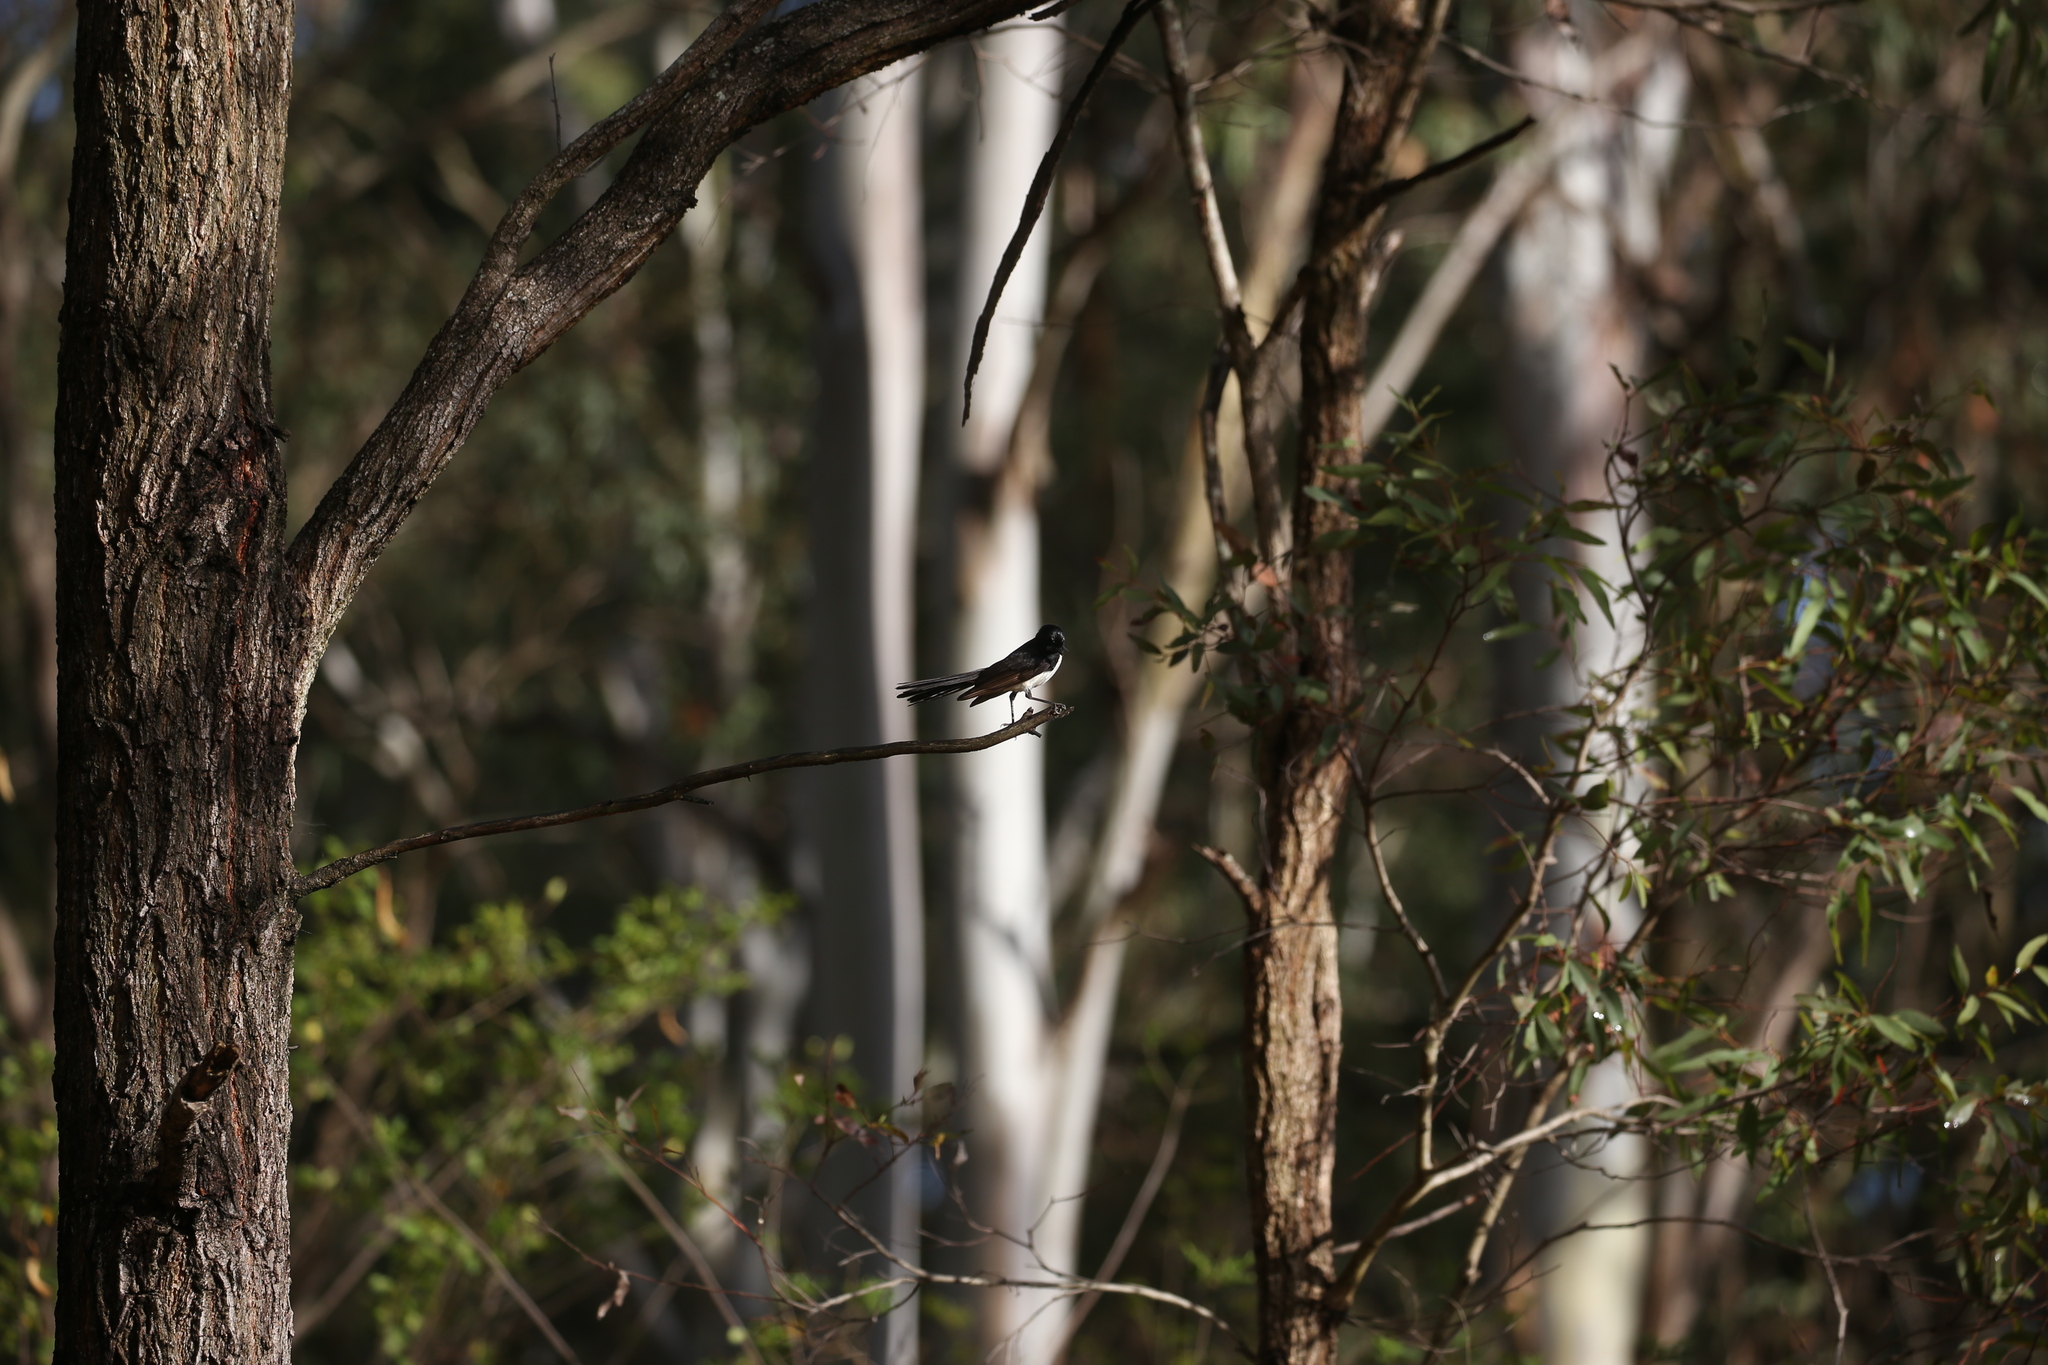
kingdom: Animalia
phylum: Chordata
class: Aves
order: Passeriformes
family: Rhipiduridae
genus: Rhipidura
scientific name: Rhipidura leucophrys
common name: Willie wagtail
